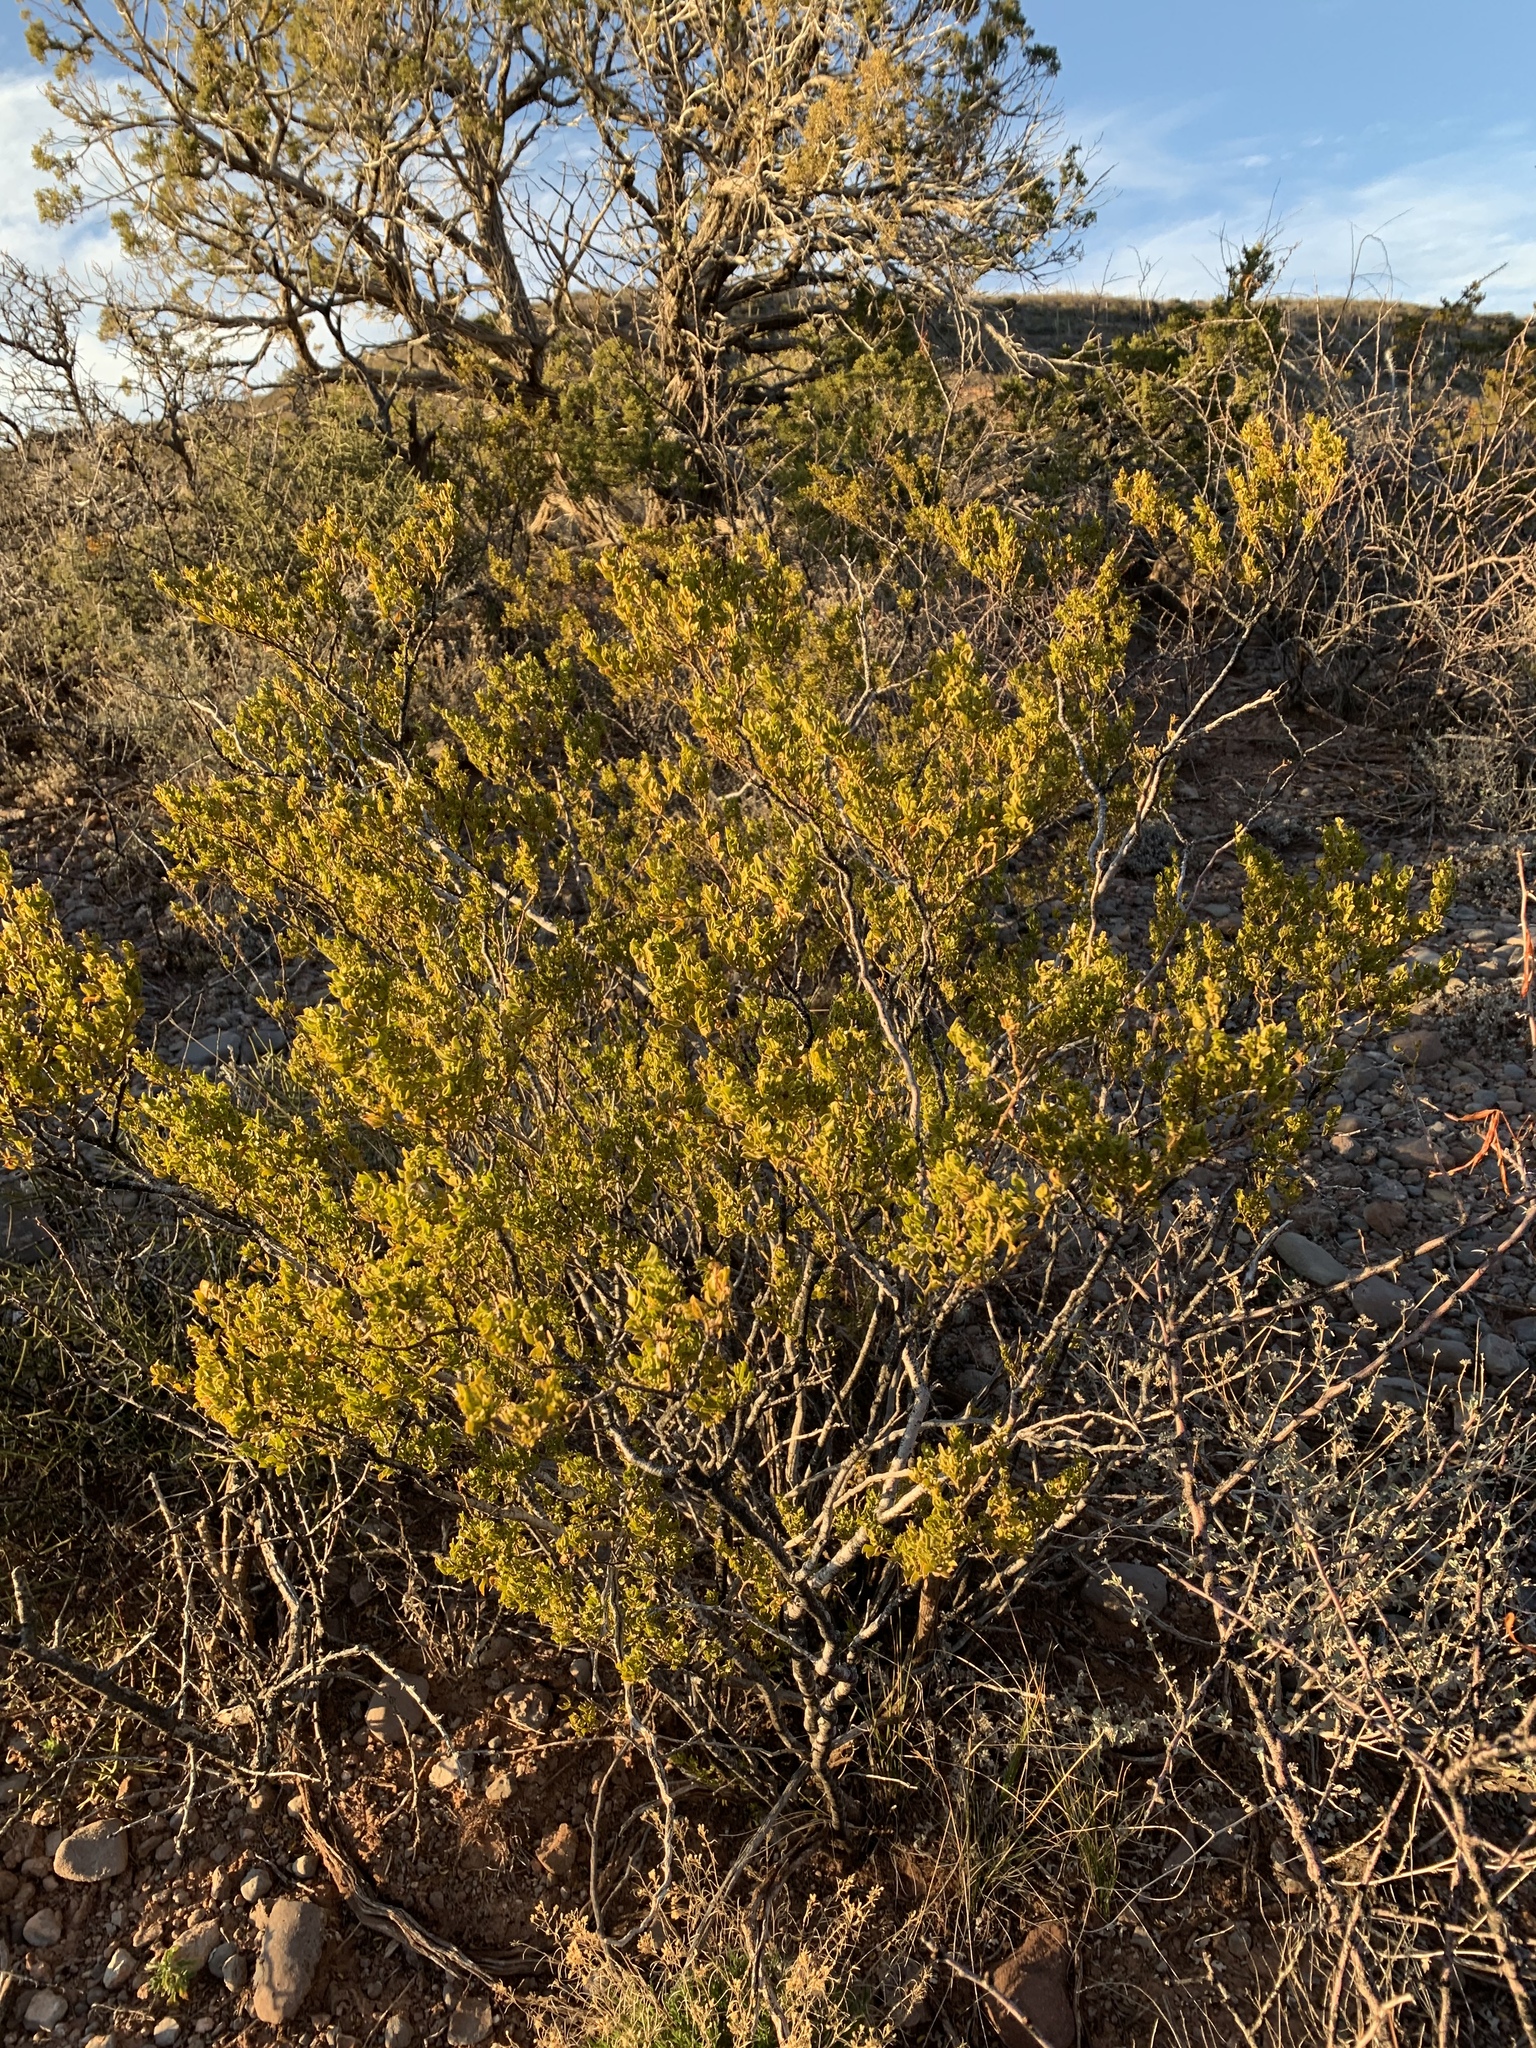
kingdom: Plantae
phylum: Tracheophyta
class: Magnoliopsida
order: Zygophyllales
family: Zygophyllaceae
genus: Larrea
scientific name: Larrea tridentata
